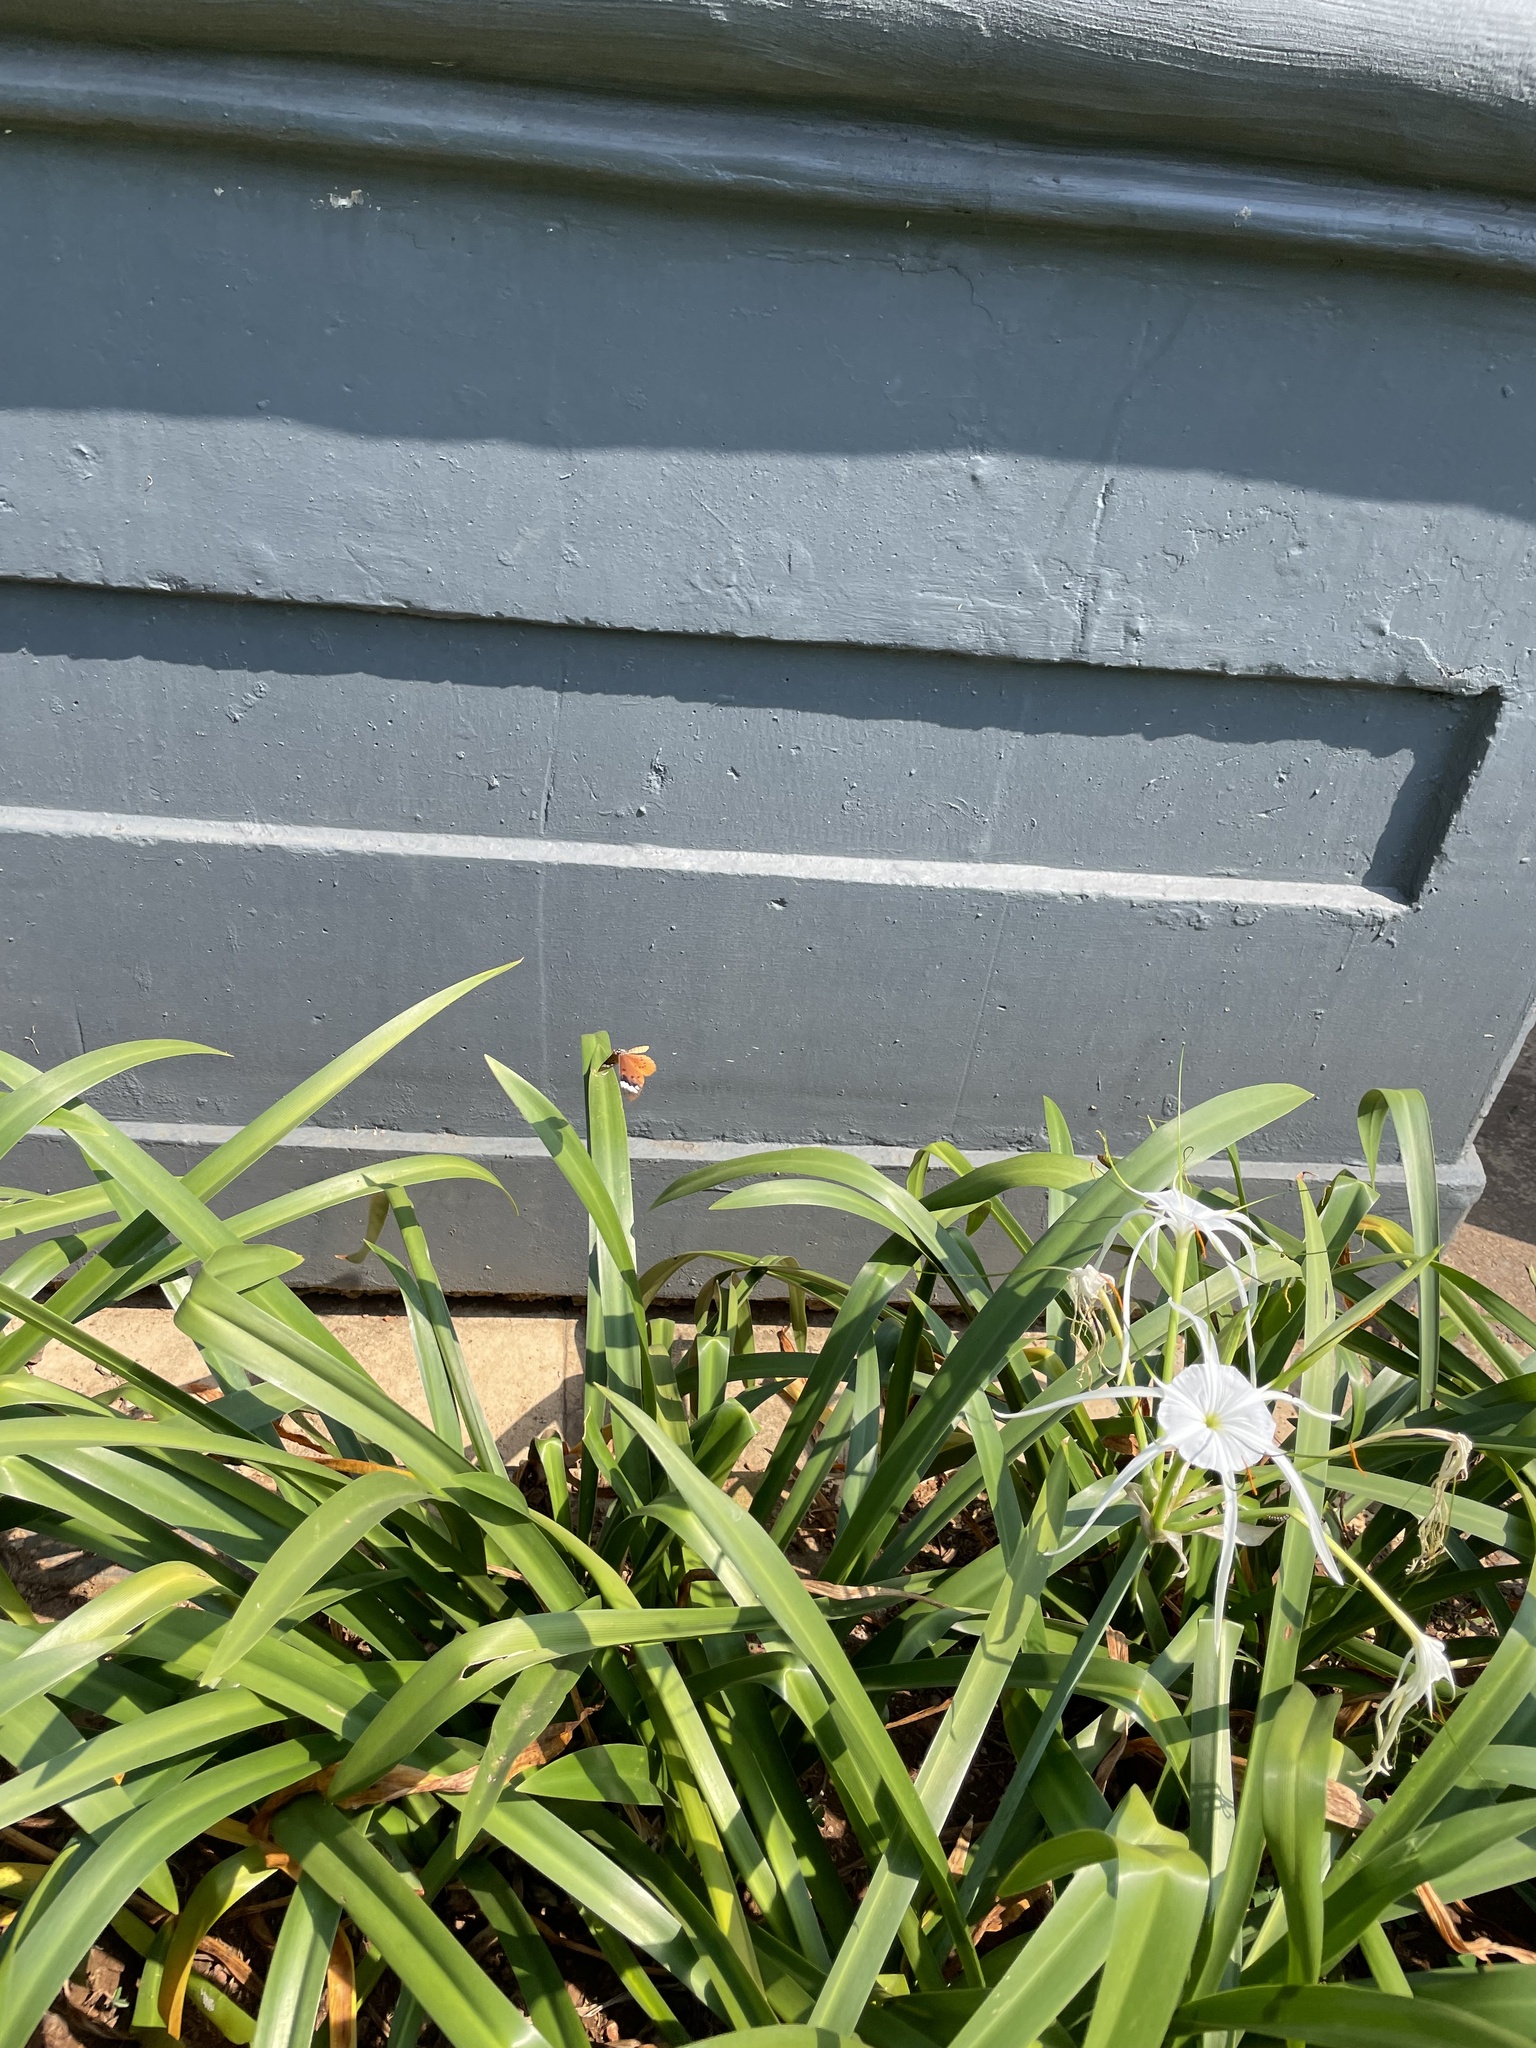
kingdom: Animalia
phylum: Arthropoda
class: Insecta
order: Lepidoptera
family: Nymphalidae
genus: Acraea
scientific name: Acraea Telchinia encedon
